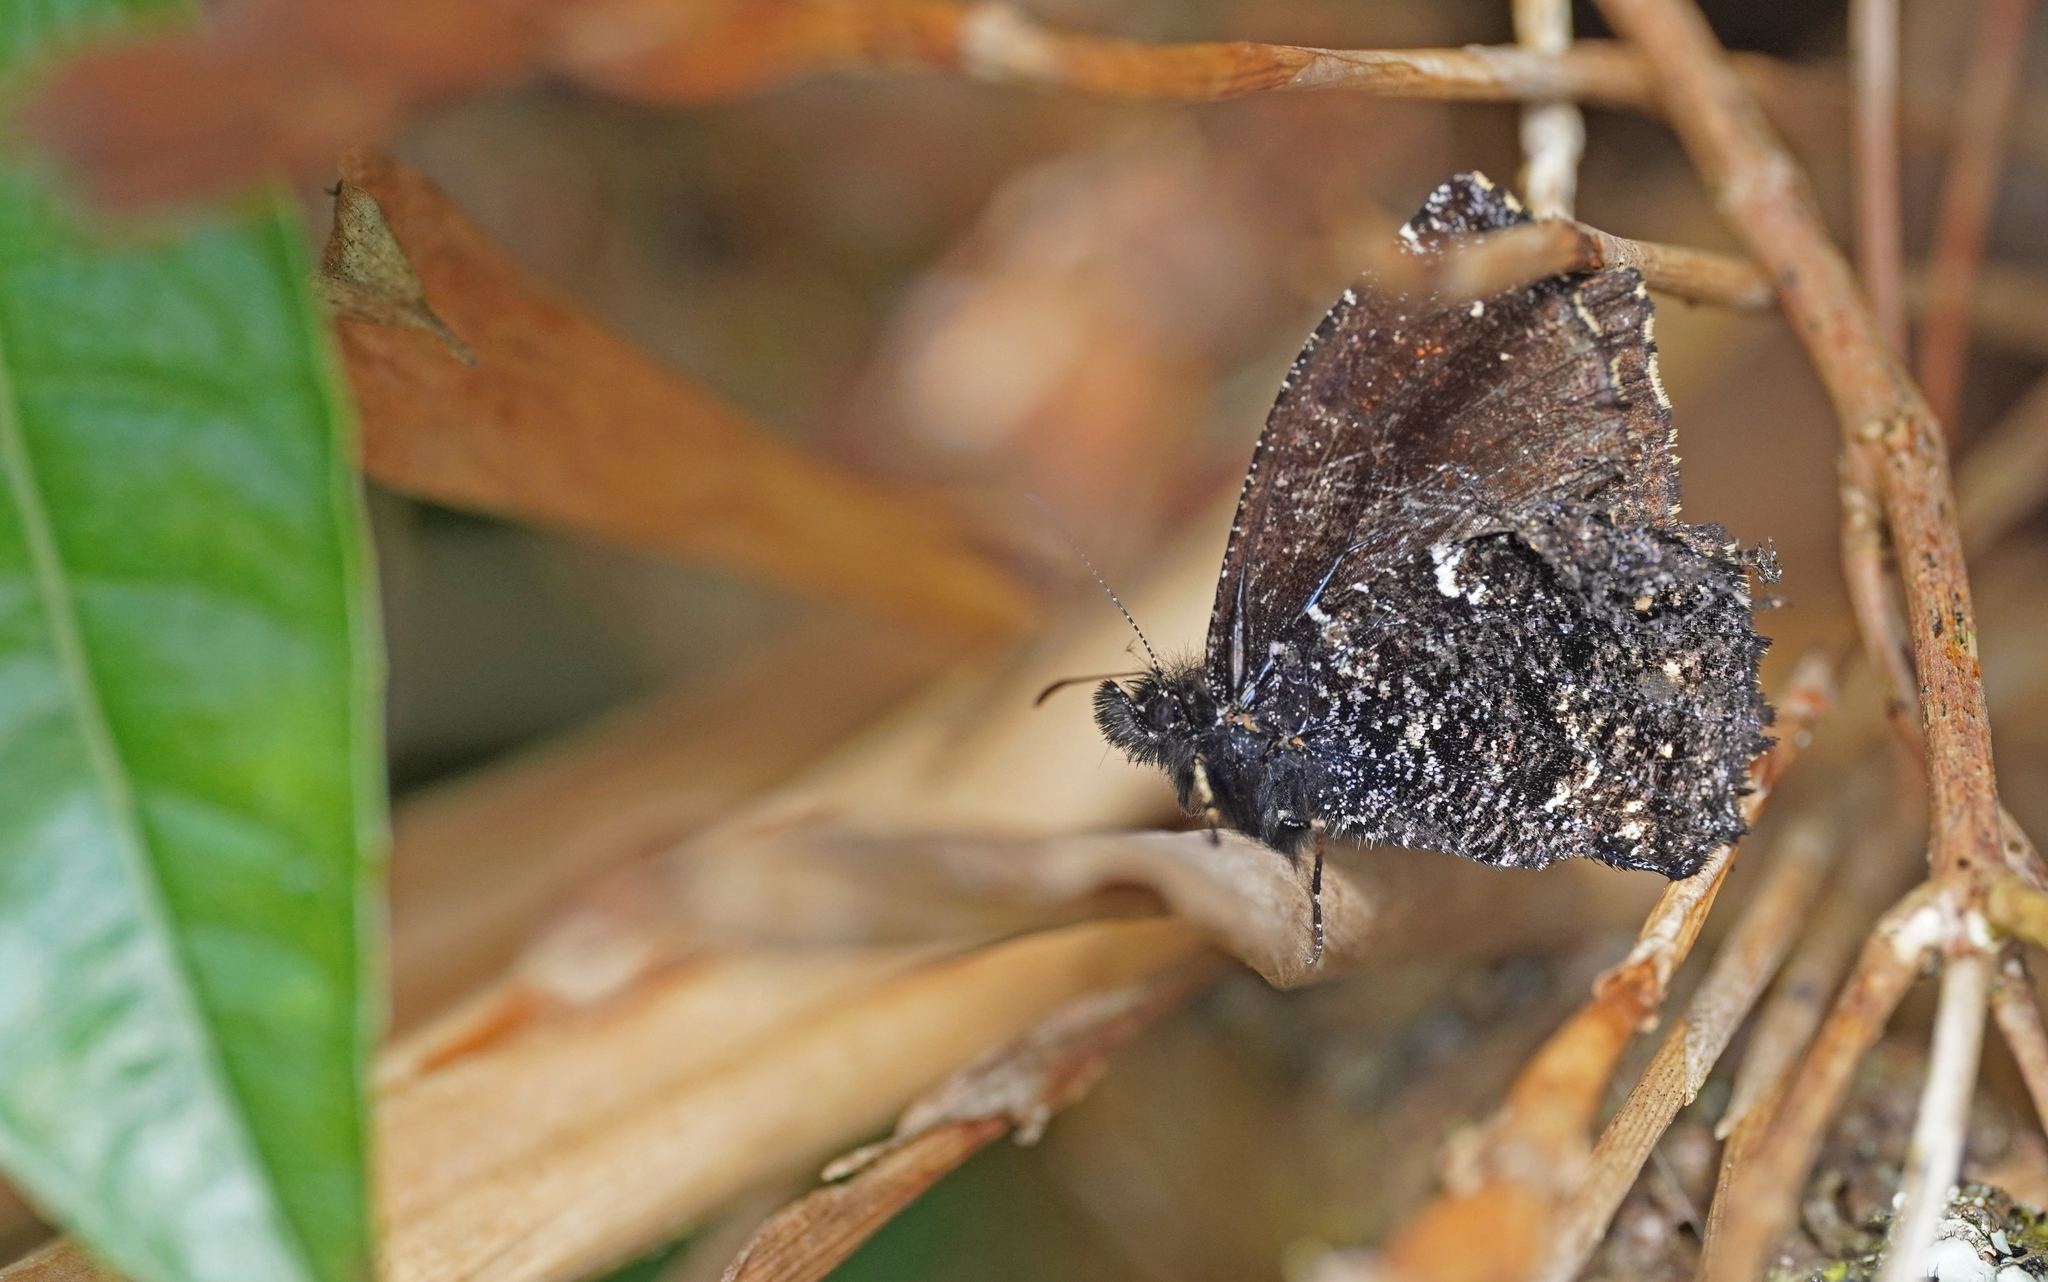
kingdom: Animalia
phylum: Arthropoda
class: Insecta
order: Lepidoptera
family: Nymphalidae
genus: Steremnia
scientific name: Steremnia pronophila
